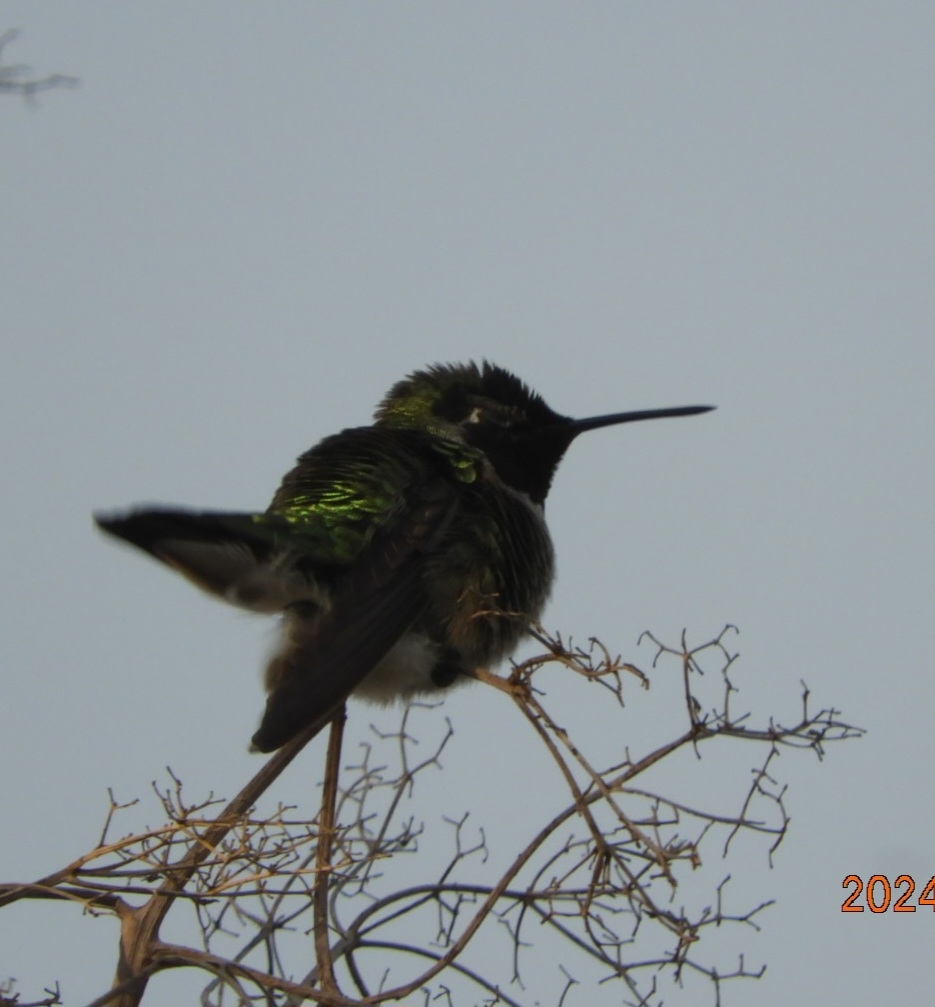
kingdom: Animalia
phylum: Chordata
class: Aves
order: Apodiformes
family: Trochilidae
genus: Calypte
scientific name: Calypte anna
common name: Anna's hummingbird
